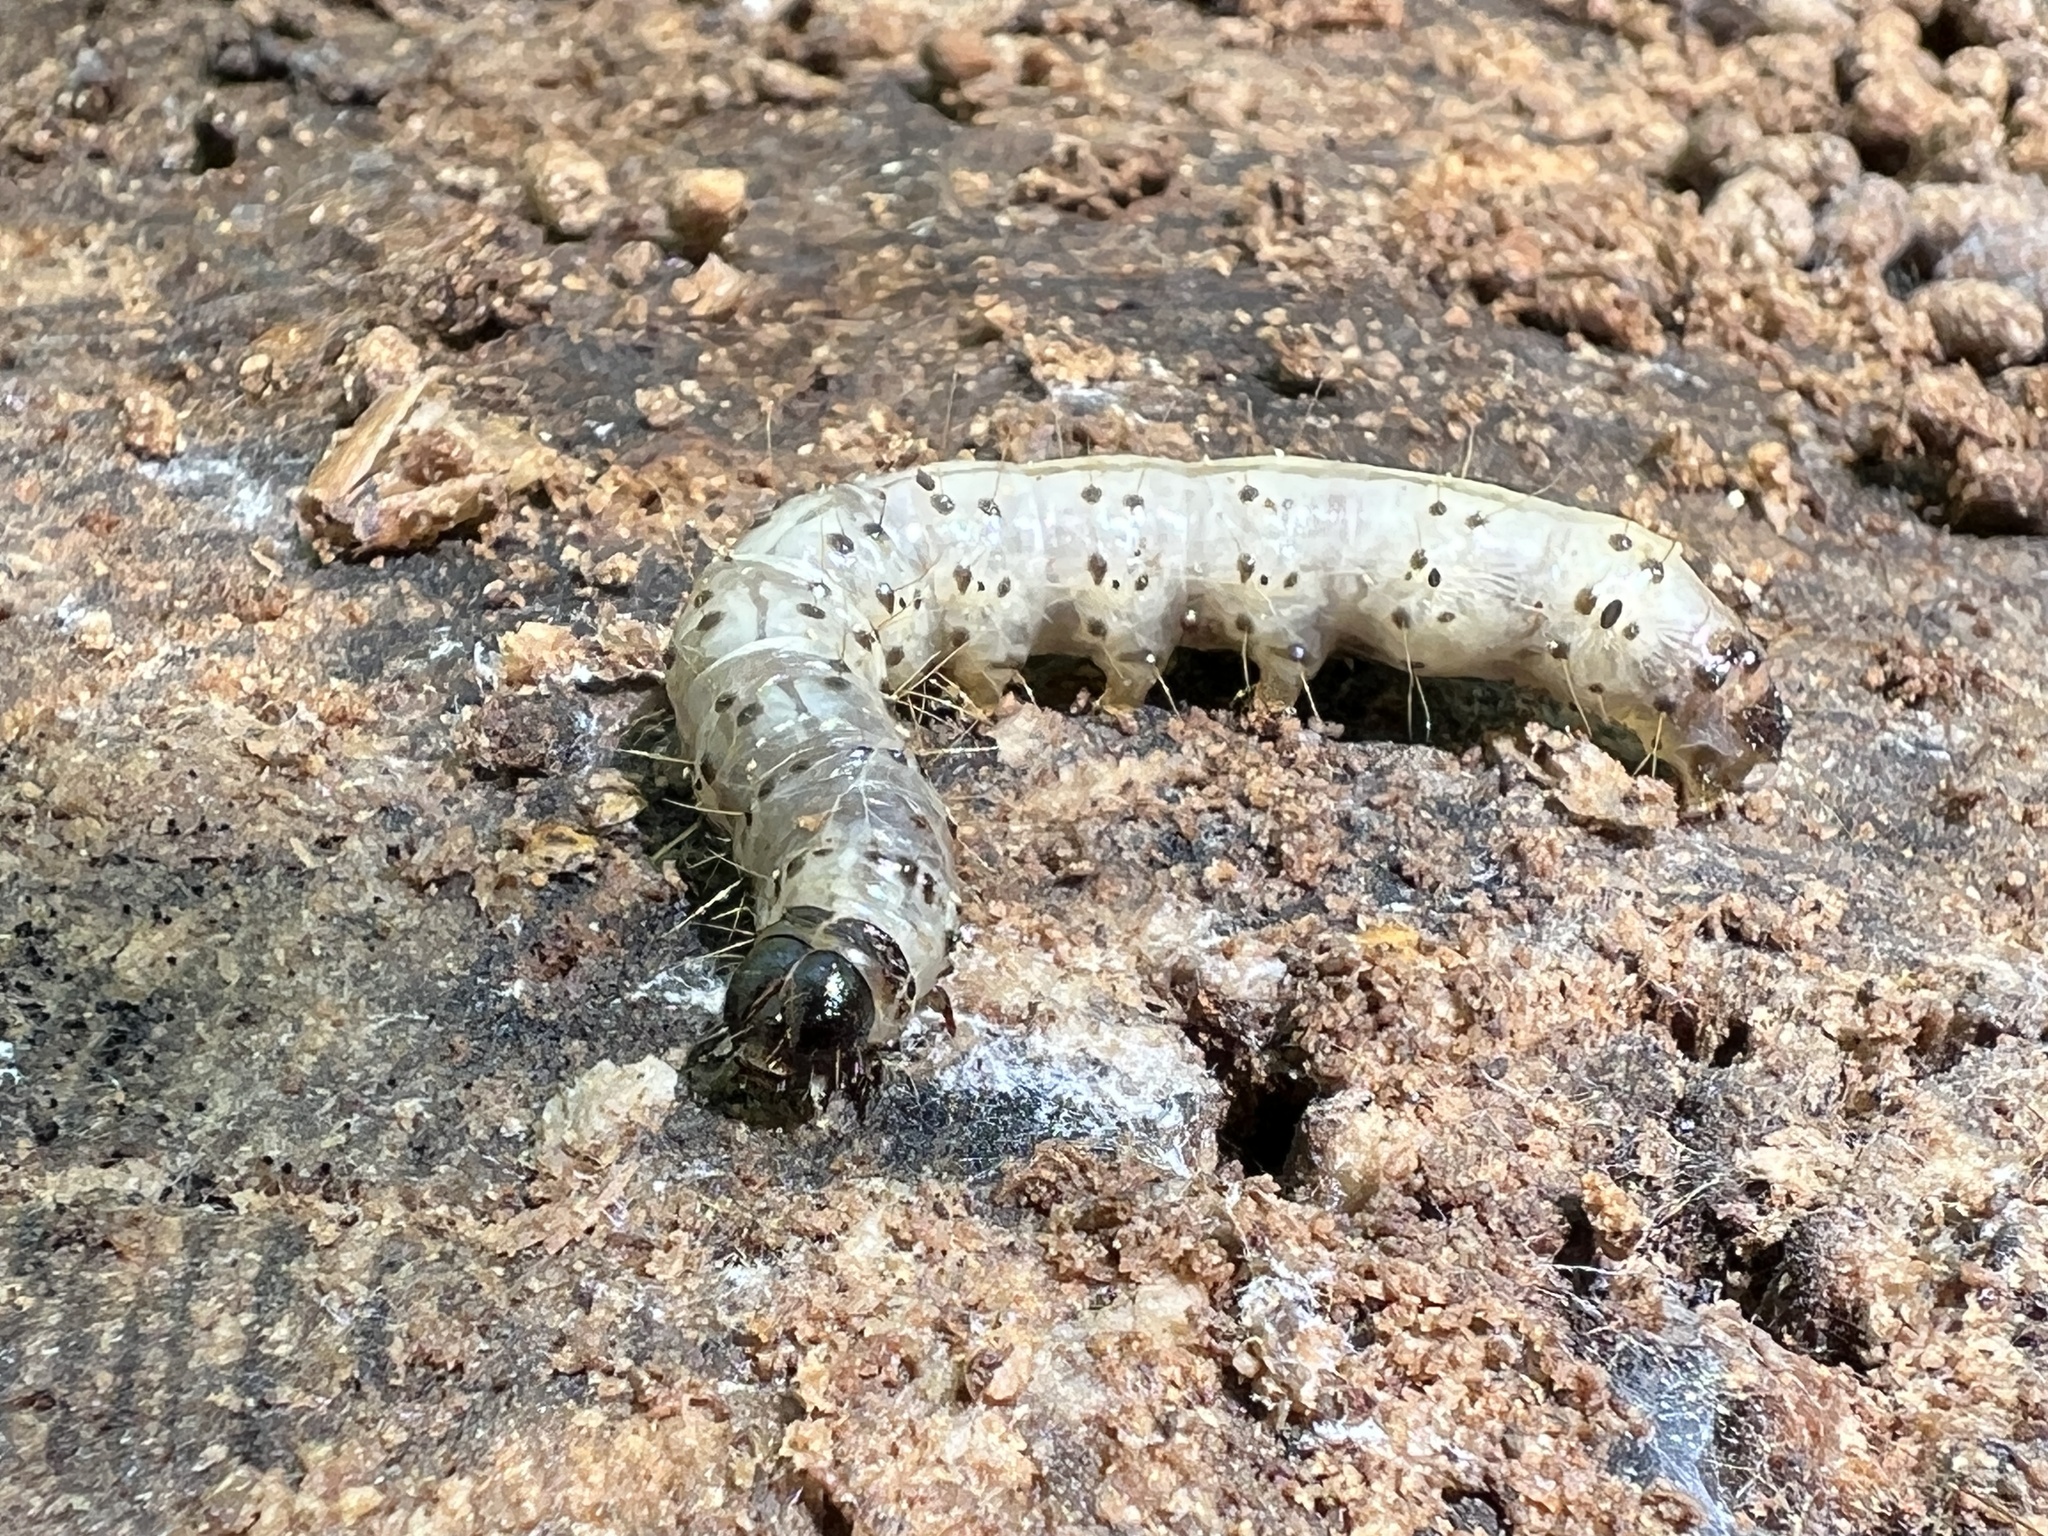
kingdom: Animalia
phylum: Arthropoda
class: Insecta
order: Lepidoptera
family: Erebidae
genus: Scolecocampa
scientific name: Scolecocampa liburna
